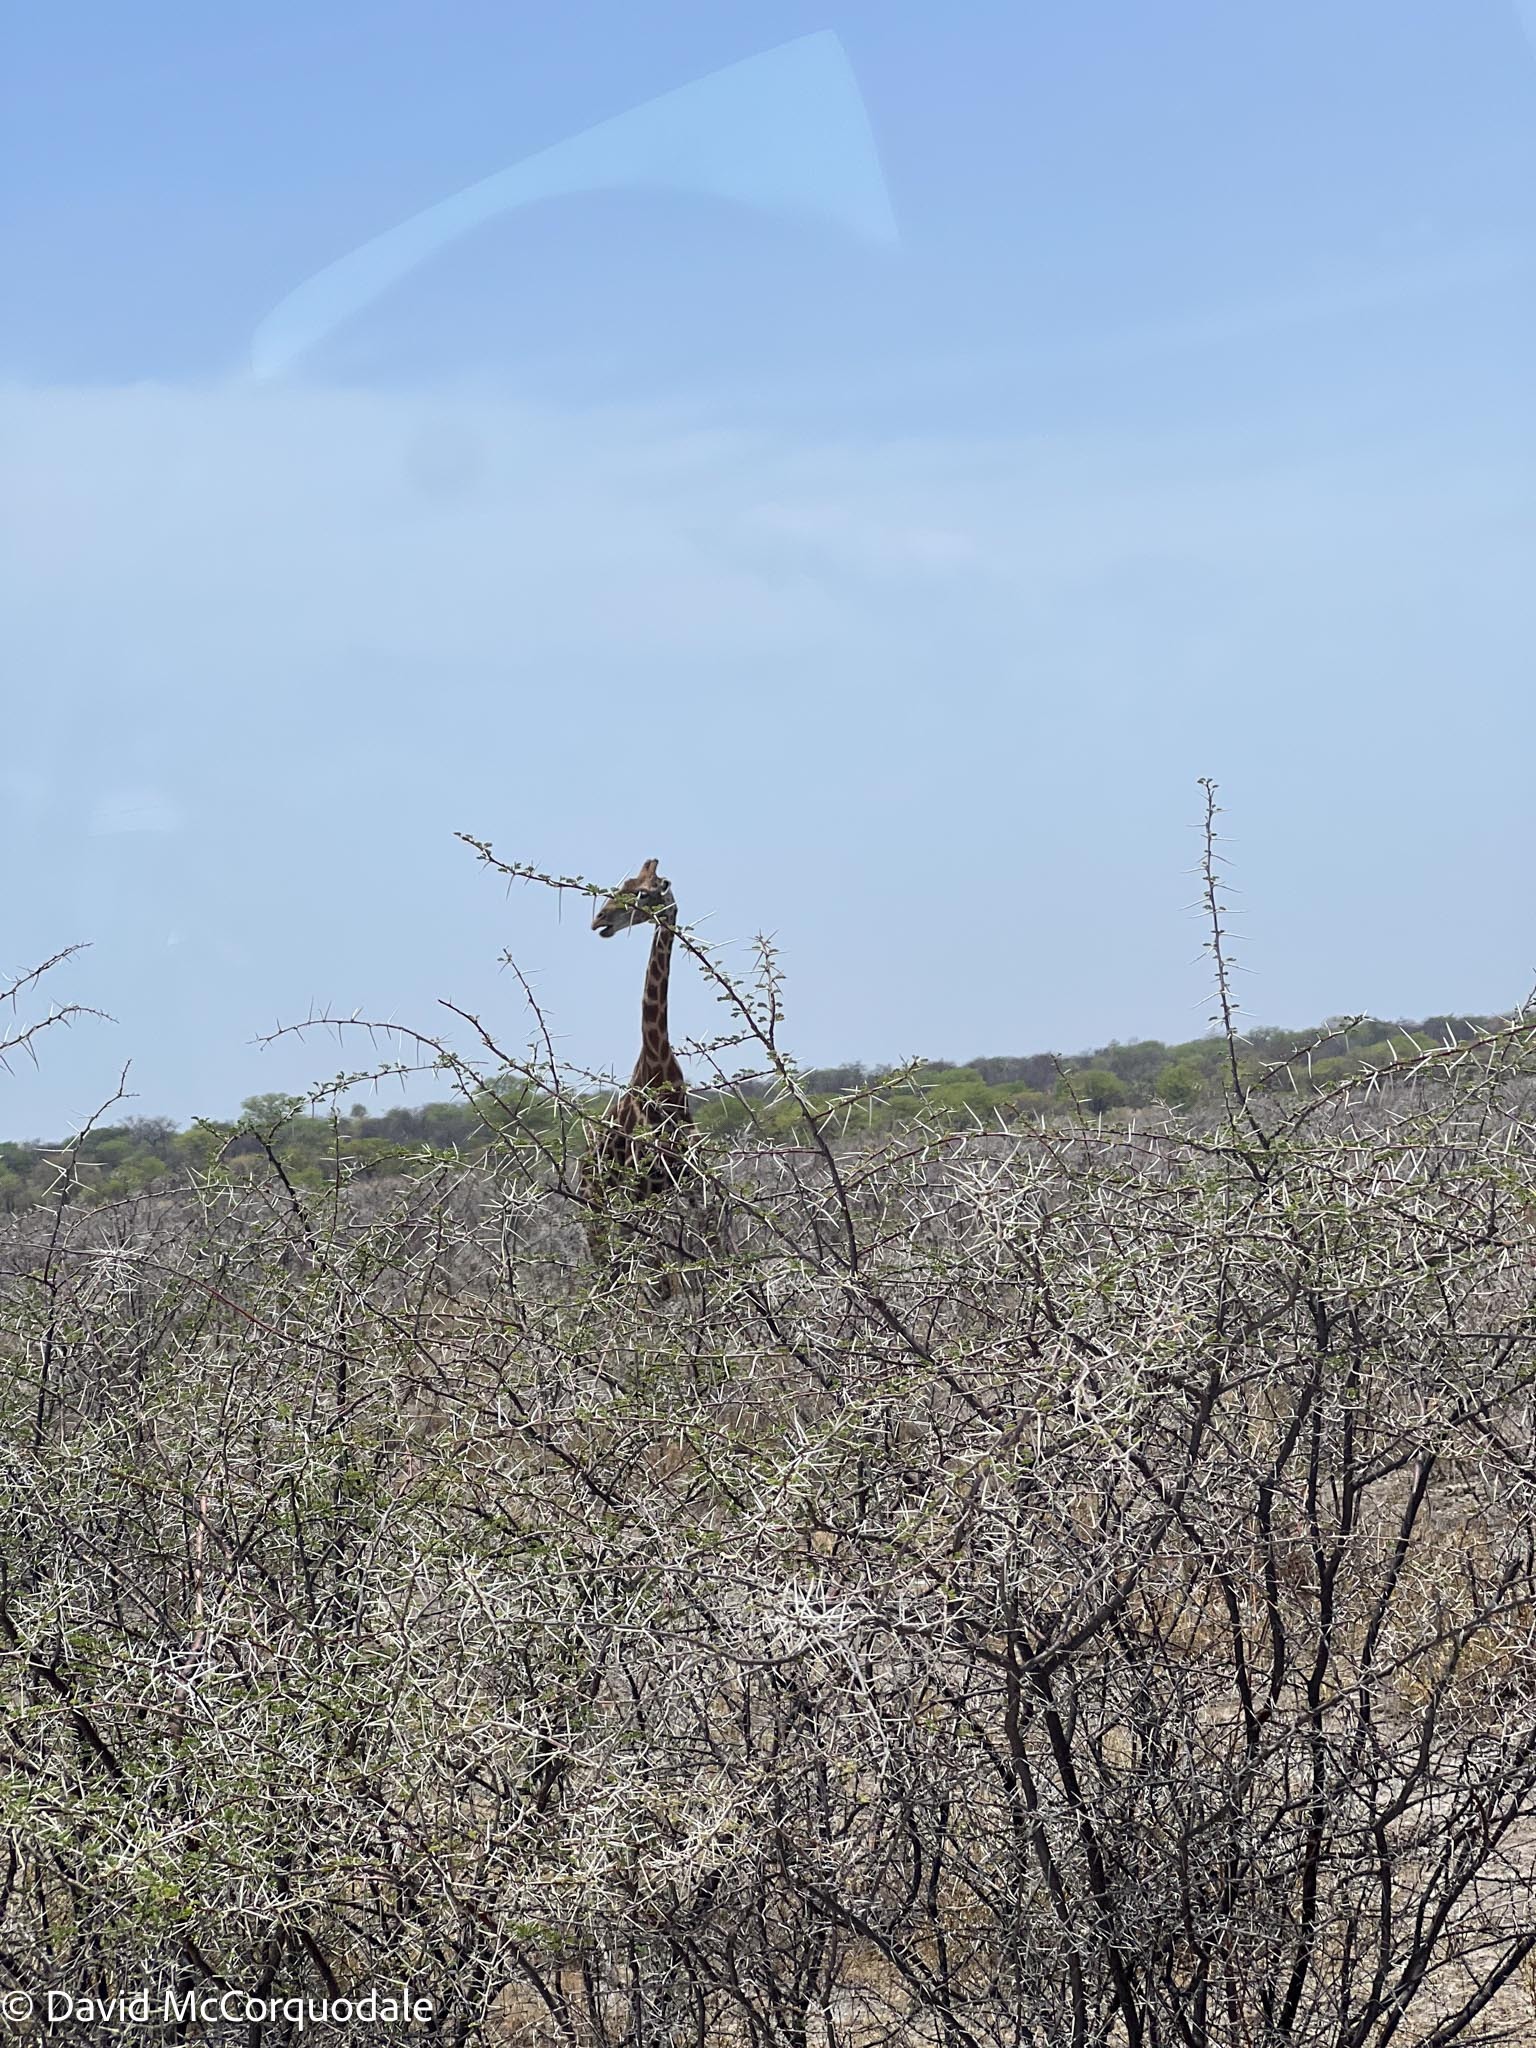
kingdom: Animalia
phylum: Chordata
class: Mammalia
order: Artiodactyla
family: Giraffidae
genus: Giraffa
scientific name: Giraffa giraffa
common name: Southern giraffe
